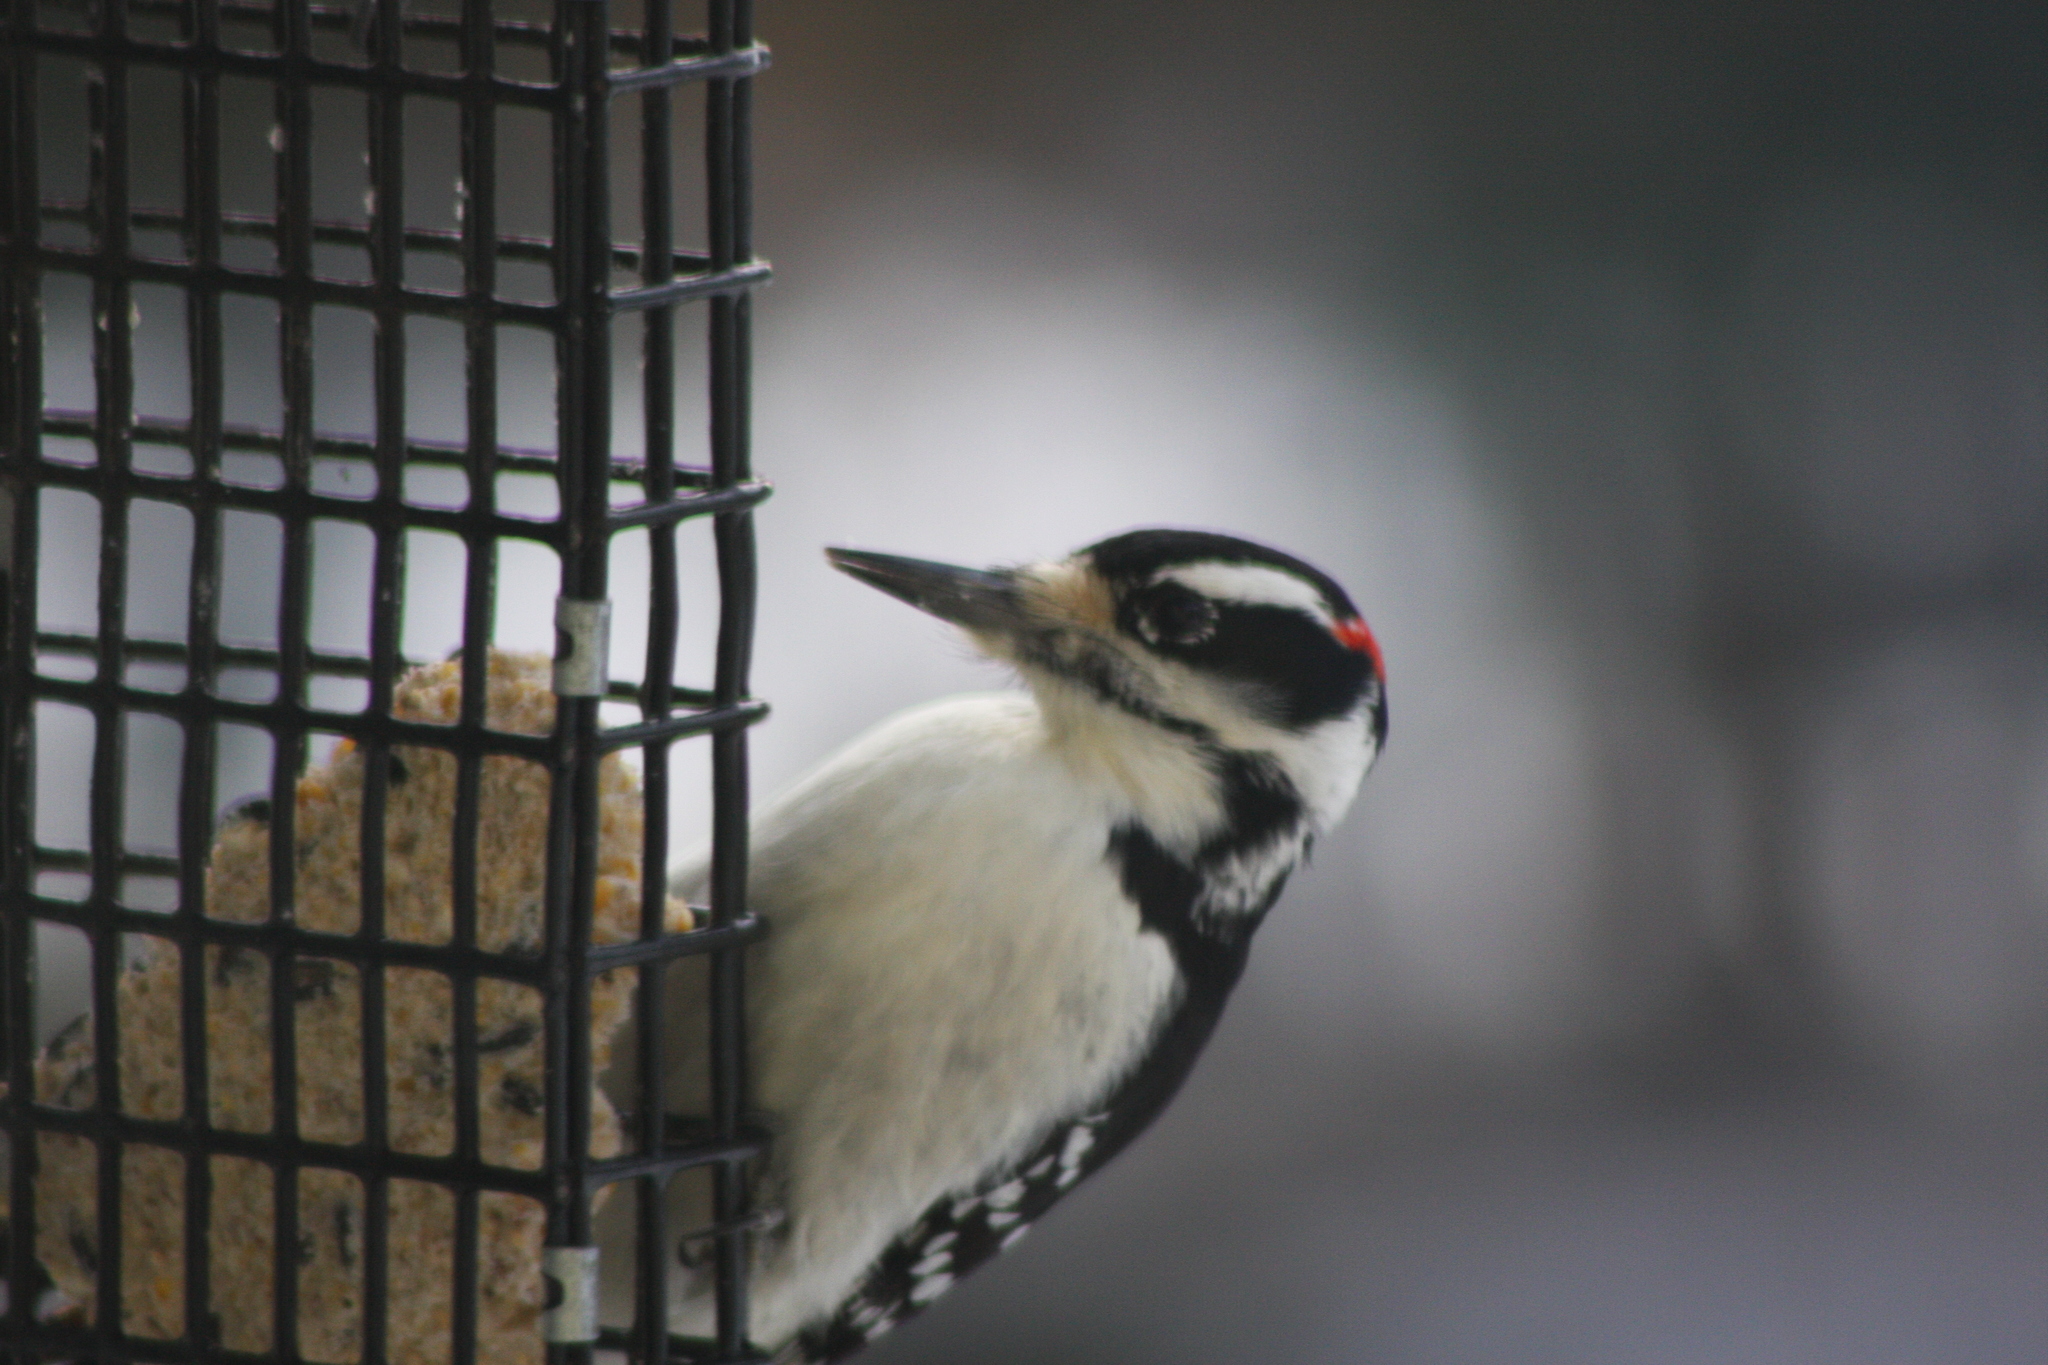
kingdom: Animalia
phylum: Chordata
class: Aves
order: Piciformes
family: Picidae
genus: Leuconotopicus
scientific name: Leuconotopicus villosus
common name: Hairy woodpecker
